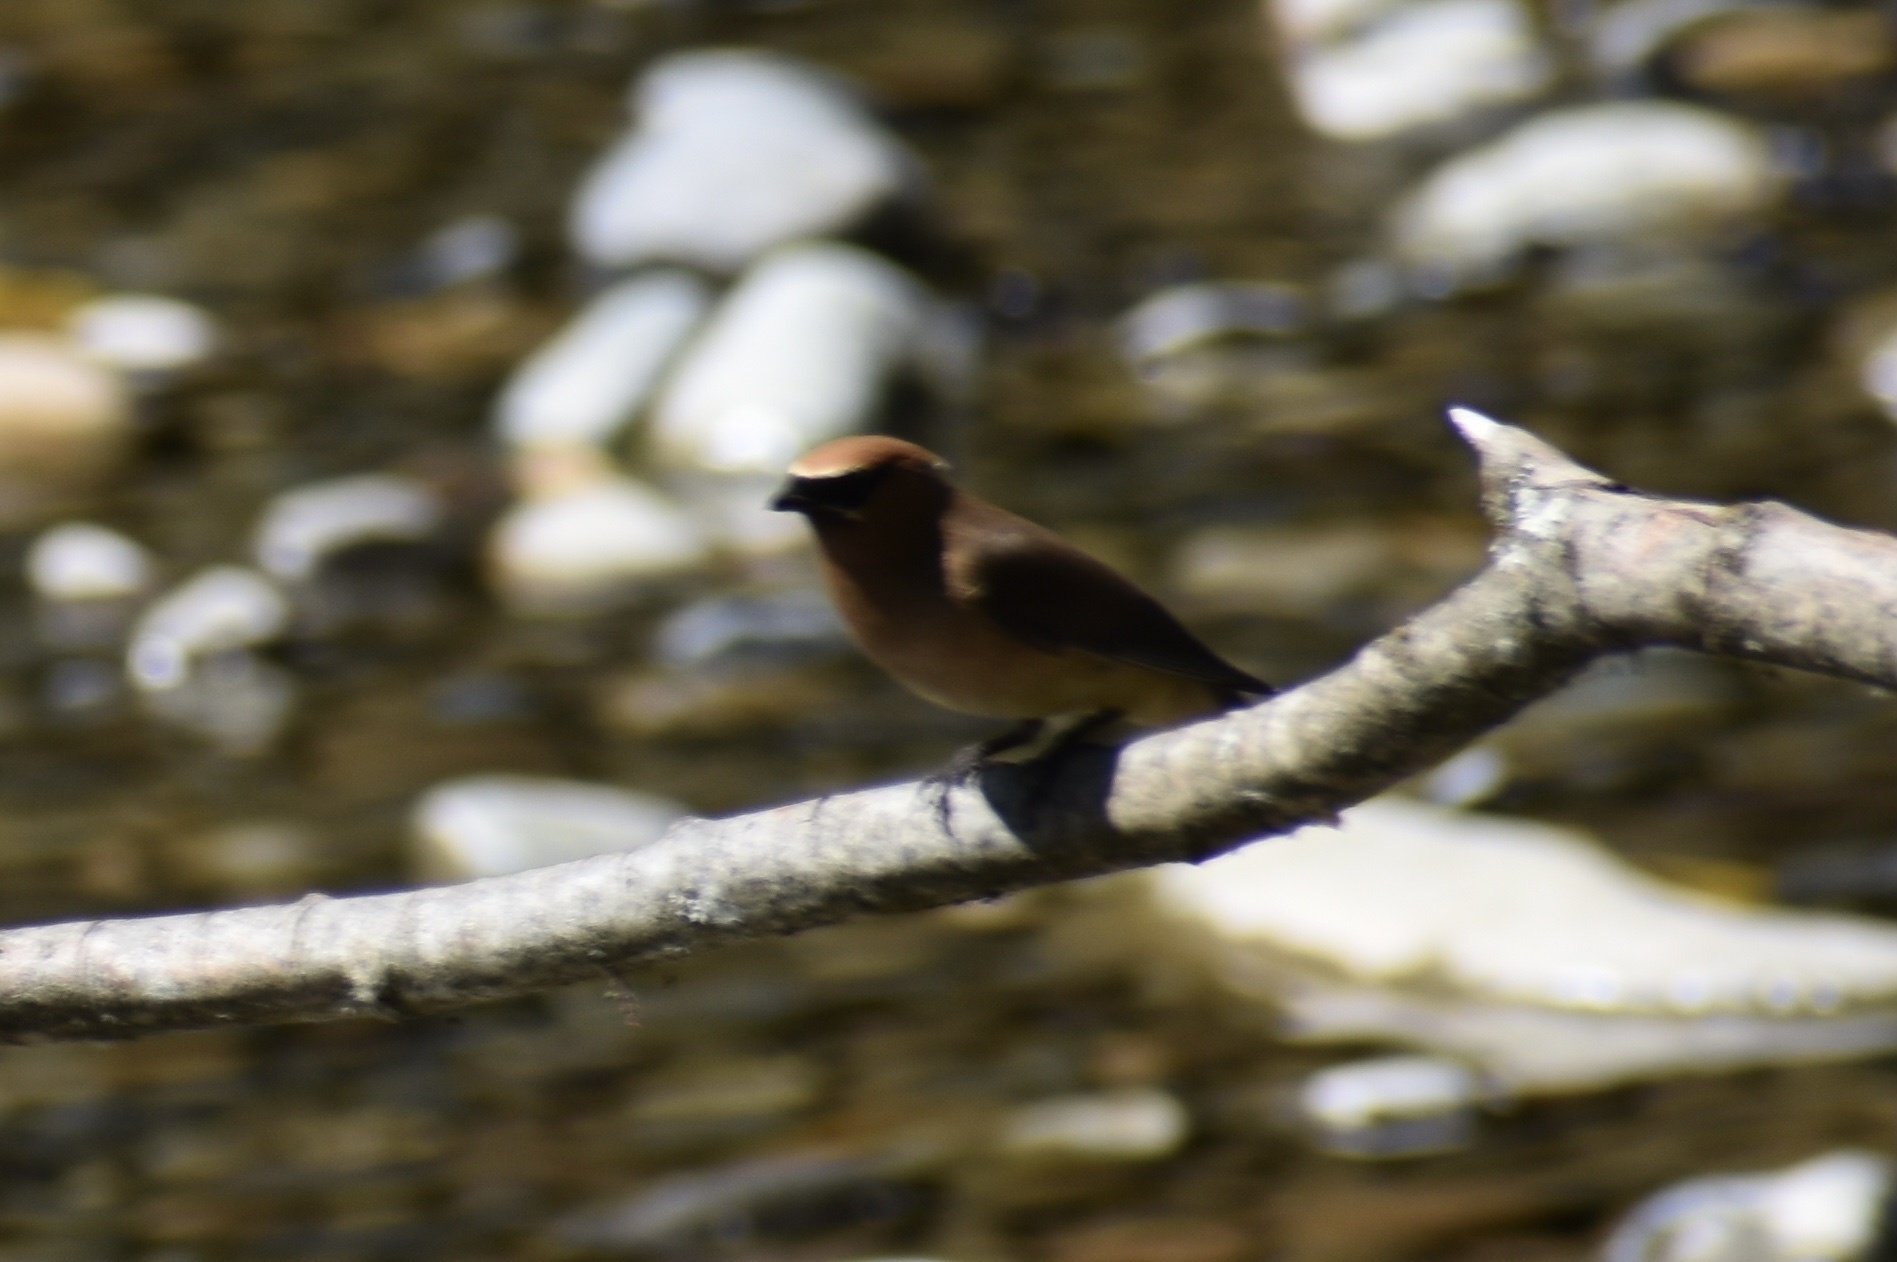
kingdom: Animalia
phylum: Chordata
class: Aves
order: Passeriformes
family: Bombycillidae
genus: Bombycilla
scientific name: Bombycilla cedrorum
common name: Cedar waxwing
